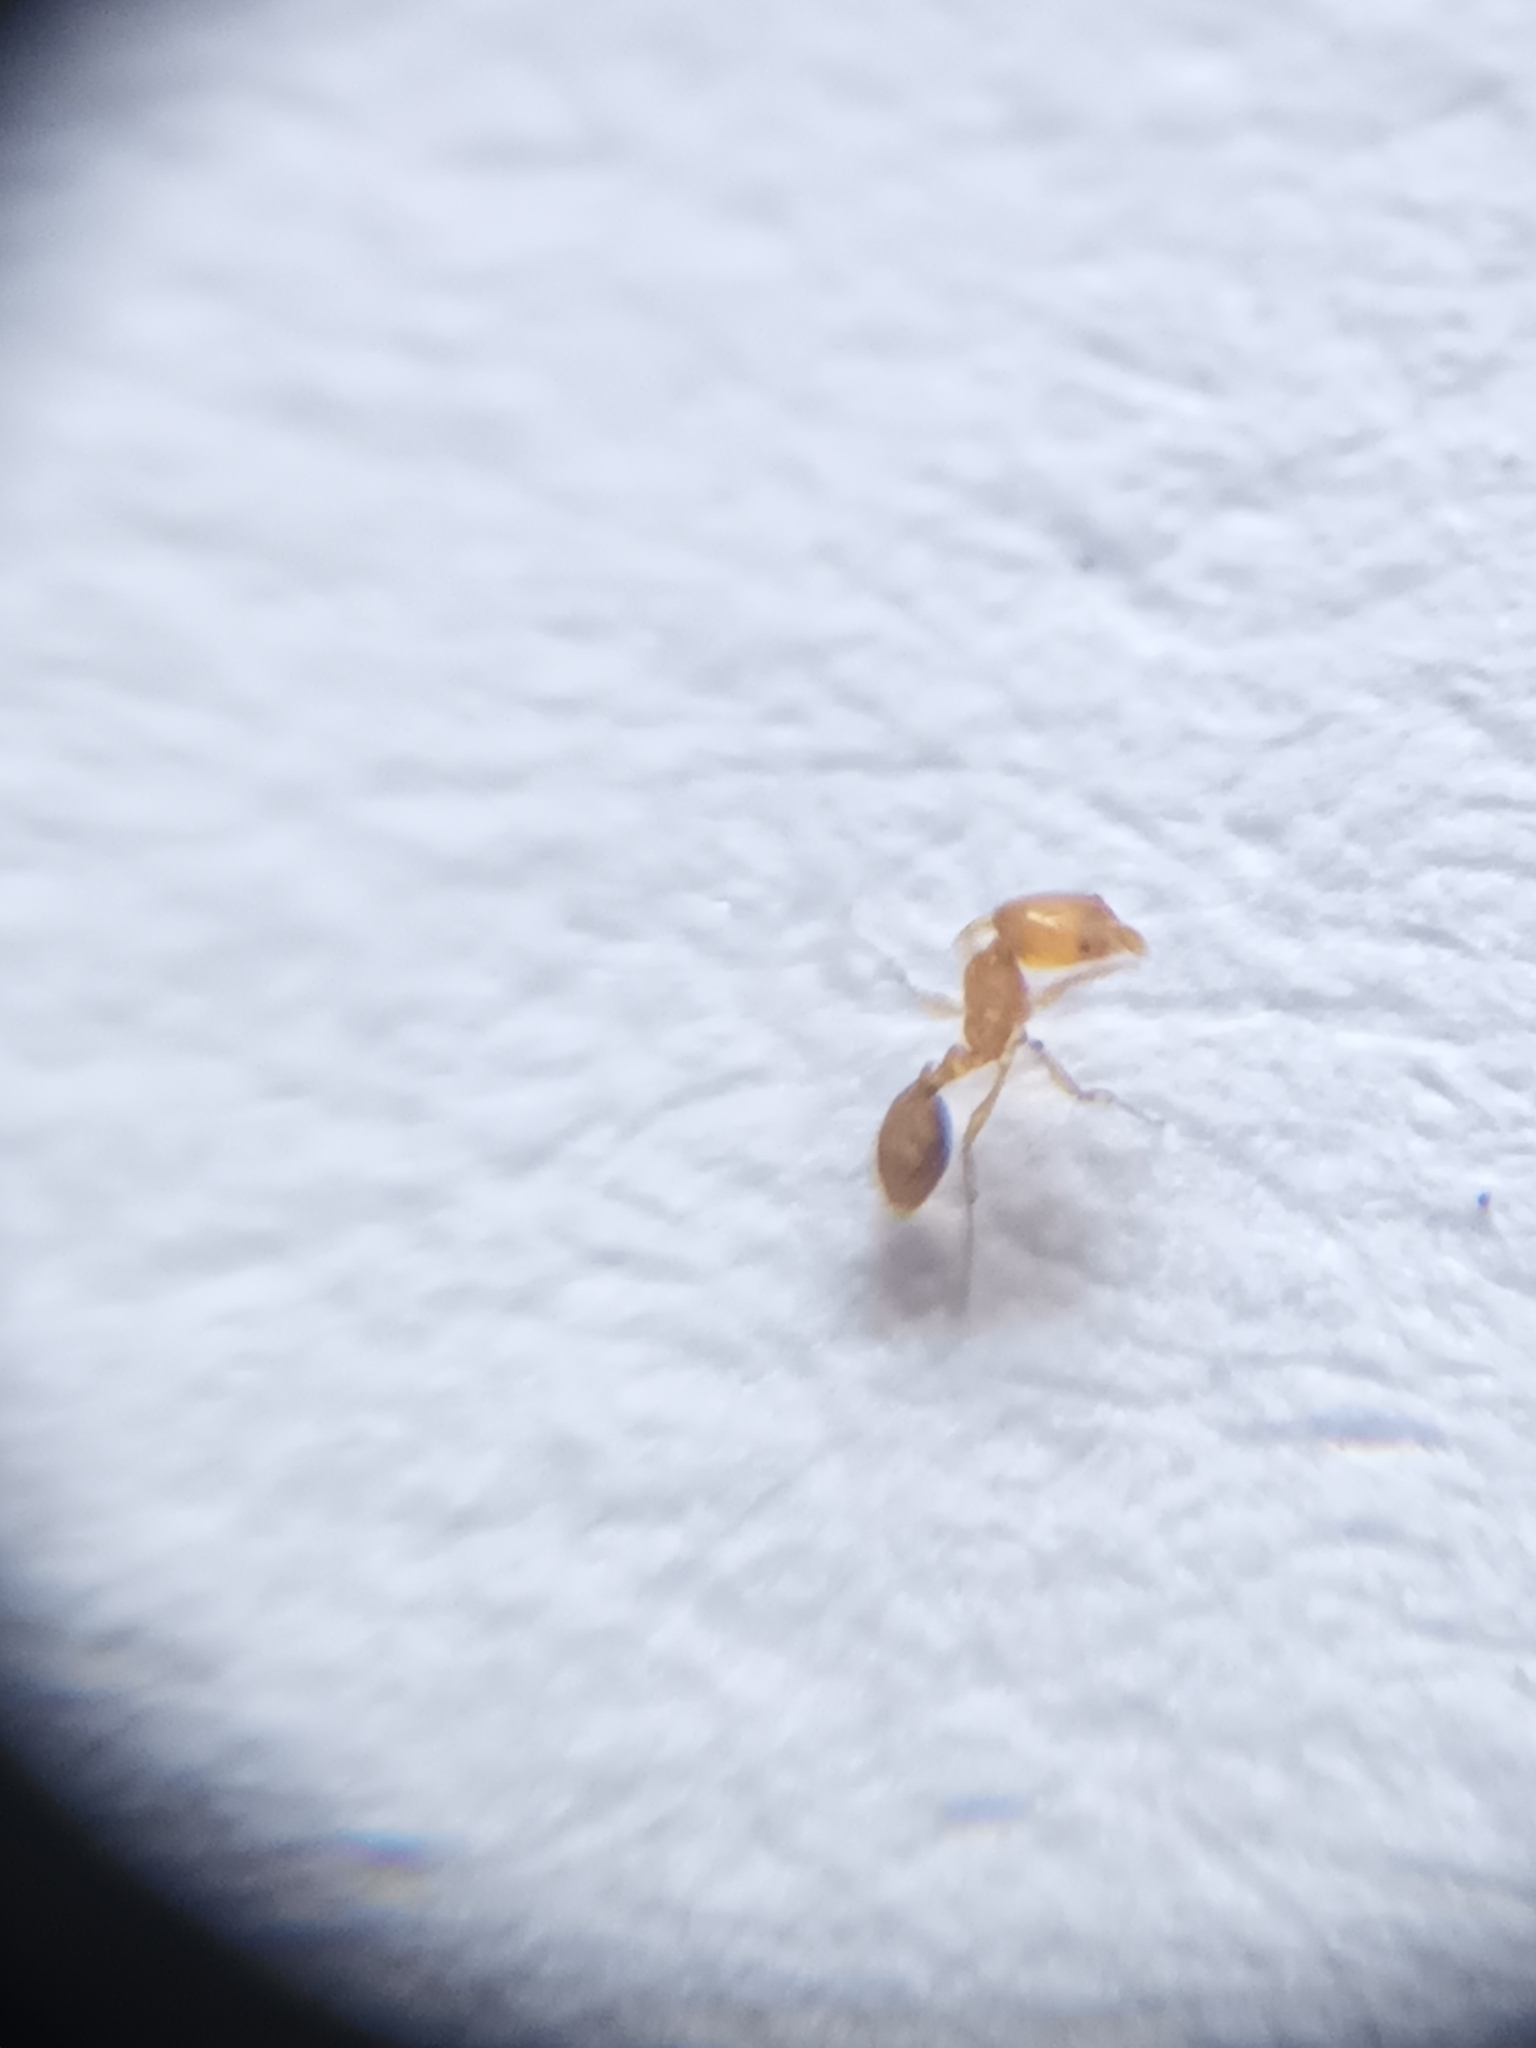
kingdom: Animalia
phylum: Arthropoda
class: Insecta
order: Hymenoptera
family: Formicidae
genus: Monomorium
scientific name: Monomorium atomum
